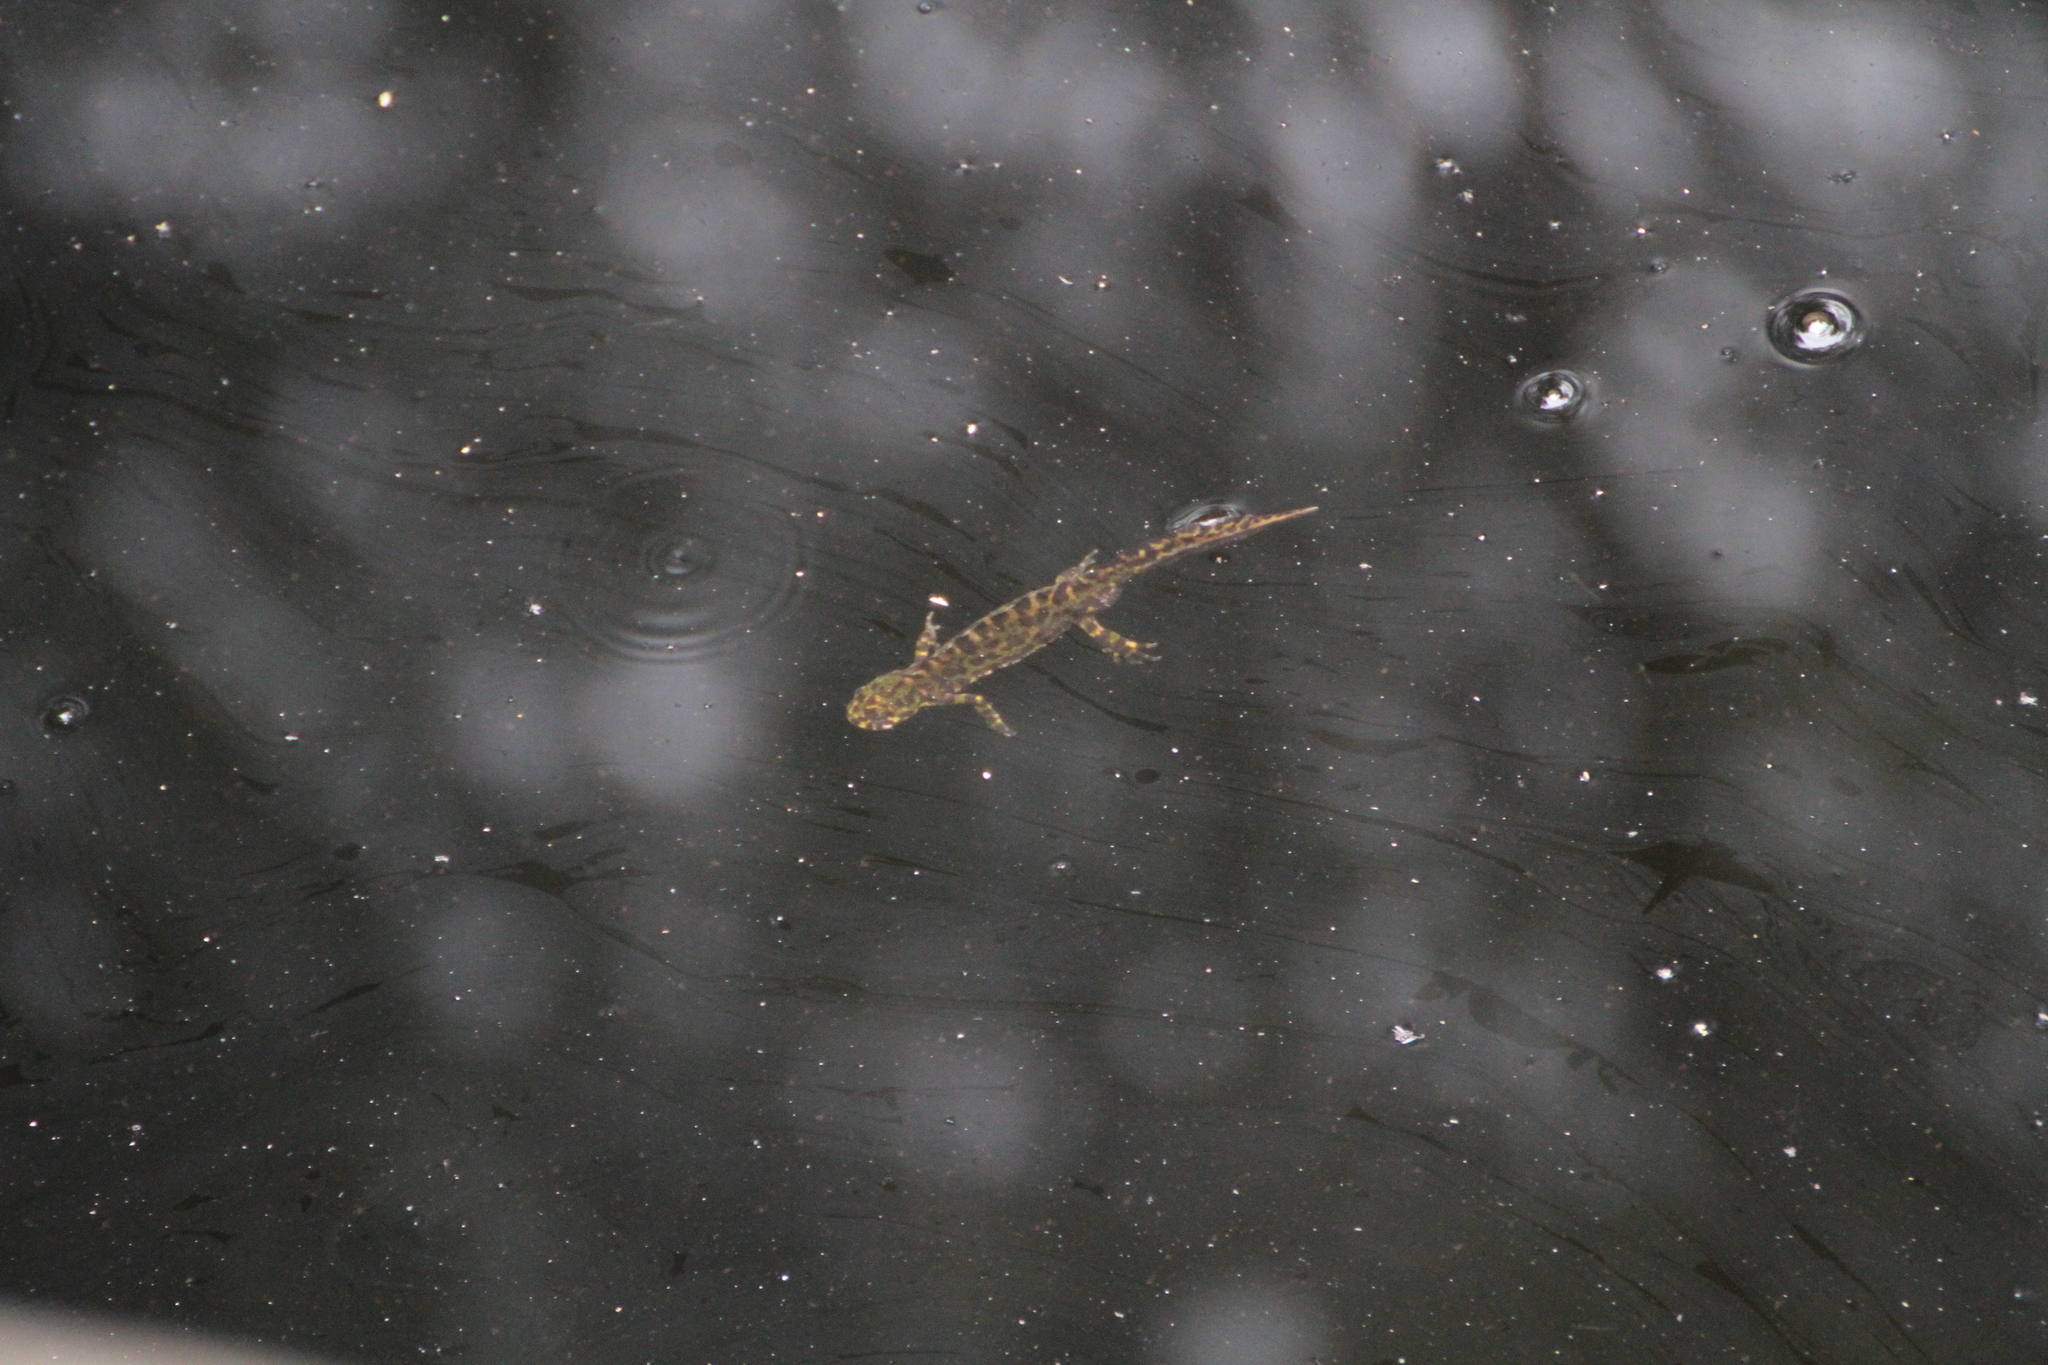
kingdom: Animalia
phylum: Chordata
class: Amphibia
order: Caudata
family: Salamandridae
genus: Triturus
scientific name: Triturus marmoratus
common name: Marbled newt
